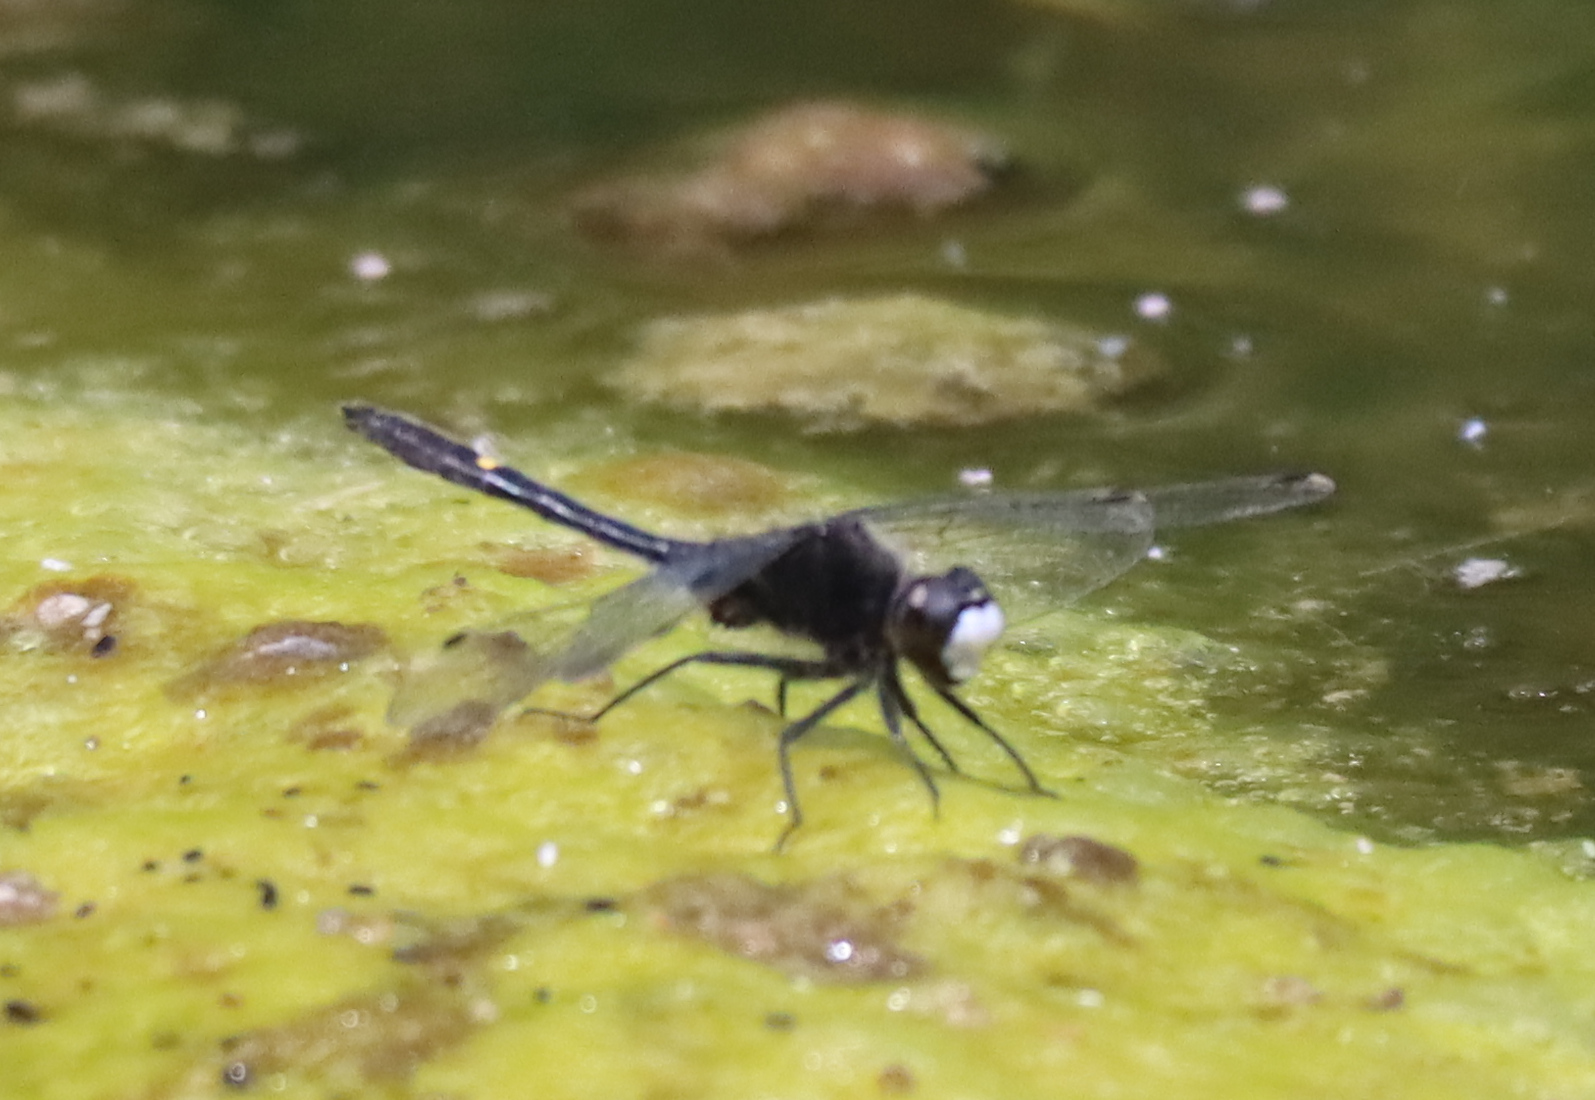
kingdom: Animalia
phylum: Arthropoda
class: Insecta
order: Odonata
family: Libellulidae
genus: Leucorrhinia
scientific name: Leucorrhinia intacta
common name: Dot-tailed whiteface
